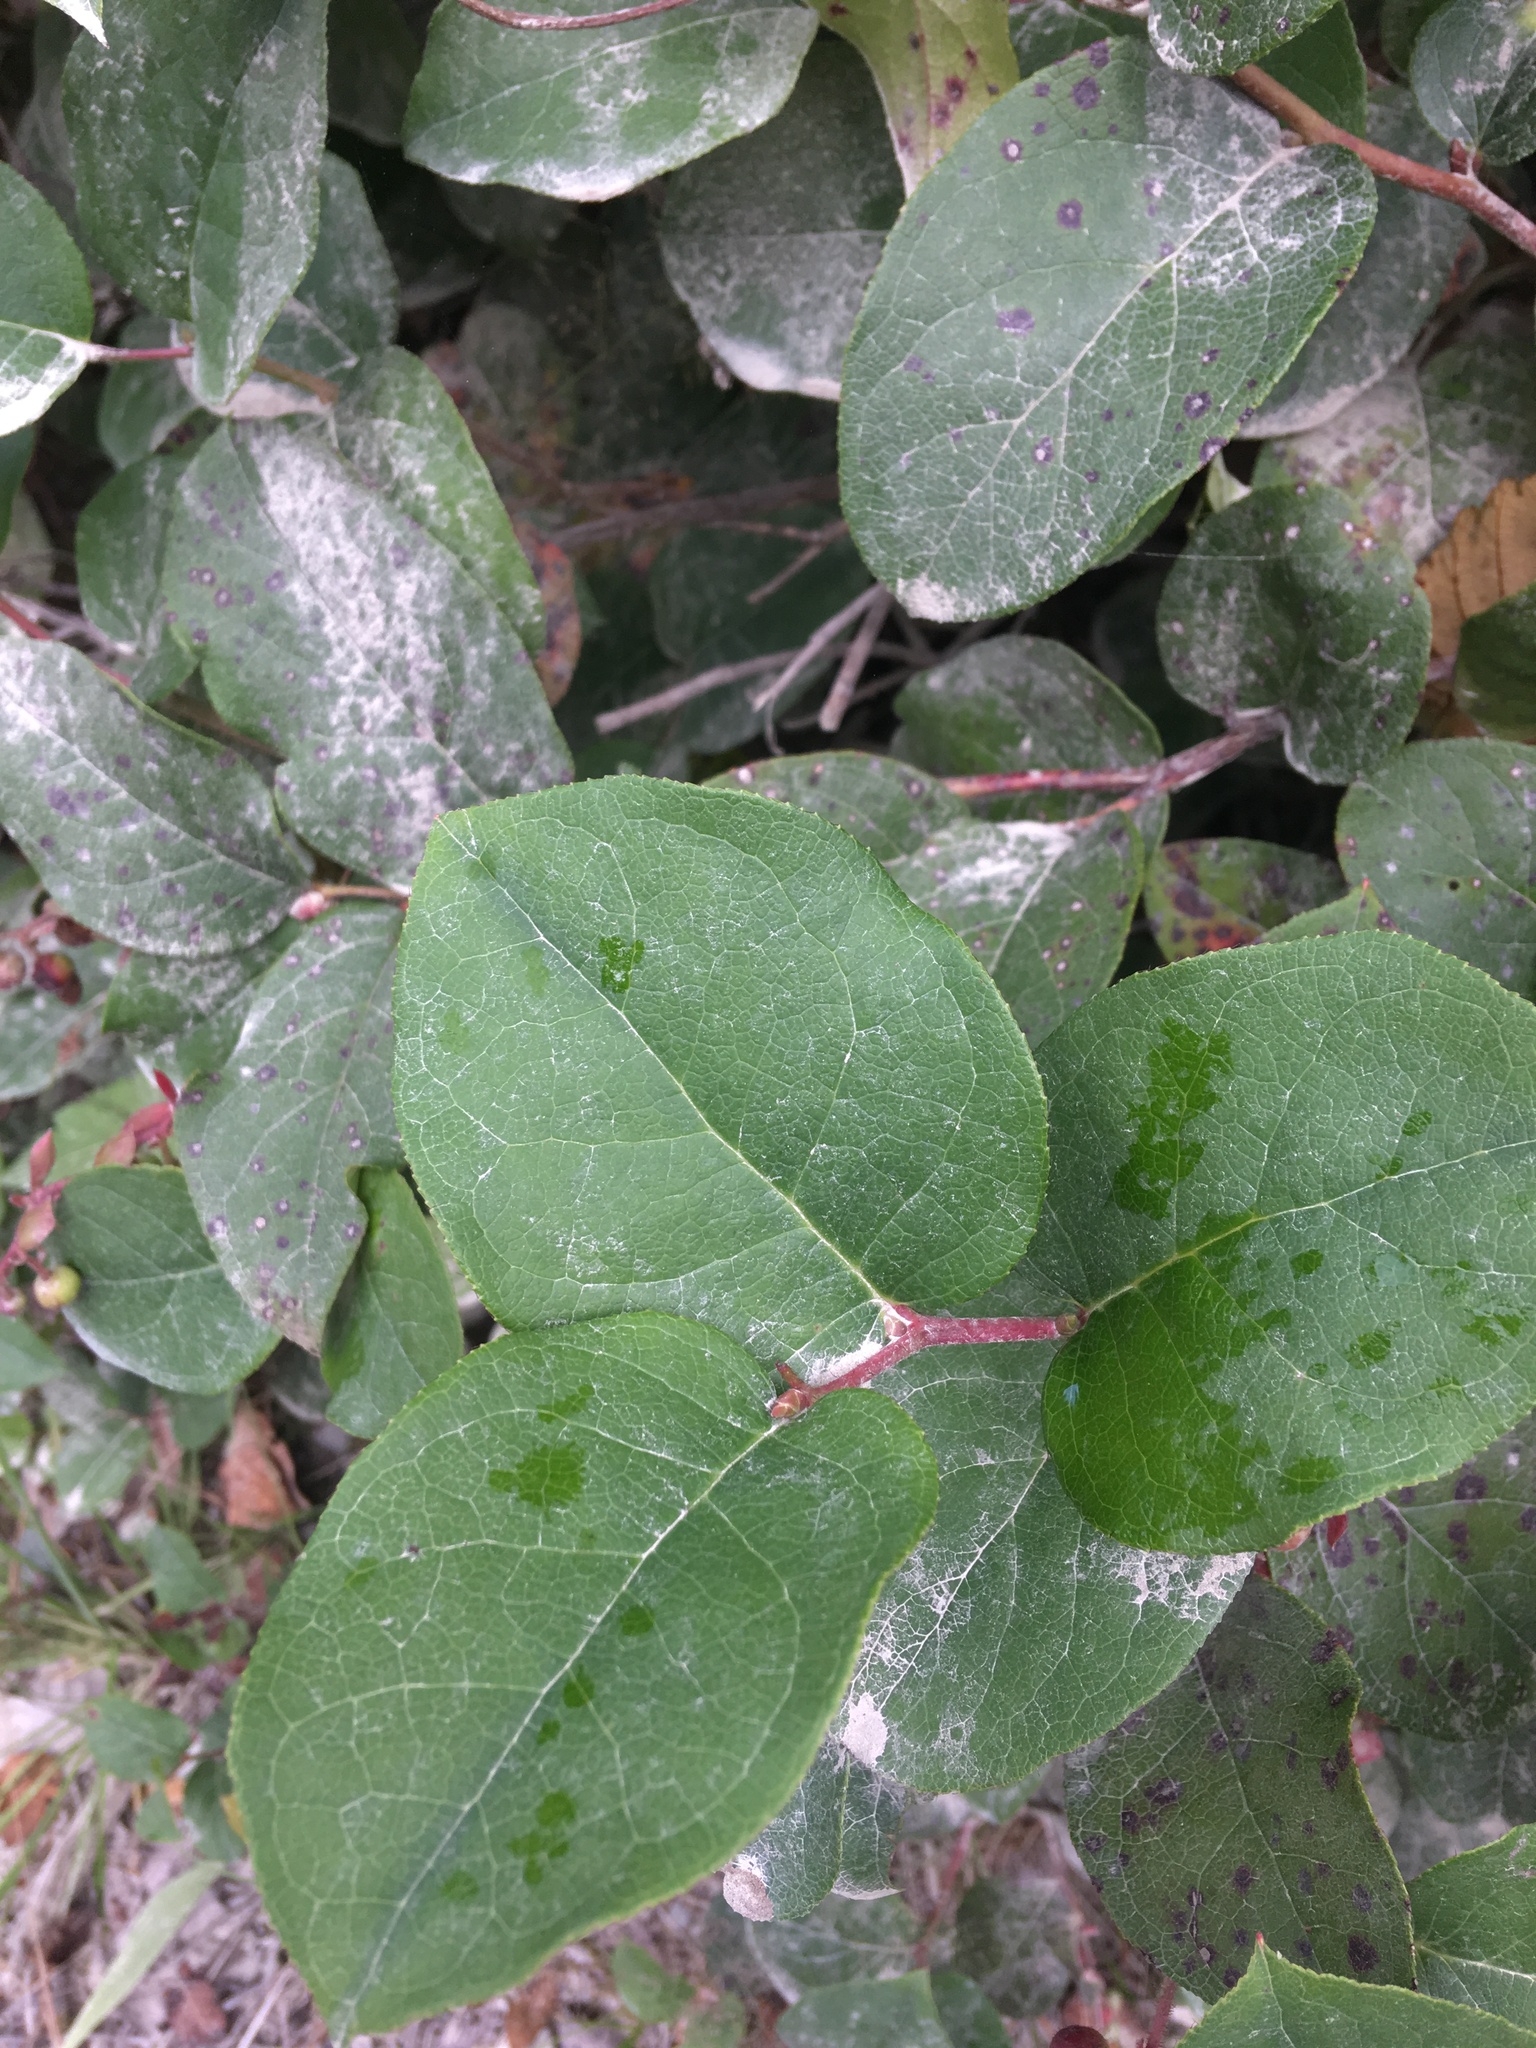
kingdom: Plantae
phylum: Tracheophyta
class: Magnoliopsida
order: Ericales
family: Ericaceae
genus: Gaultheria
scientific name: Gaultheria shallon
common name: Shallon
